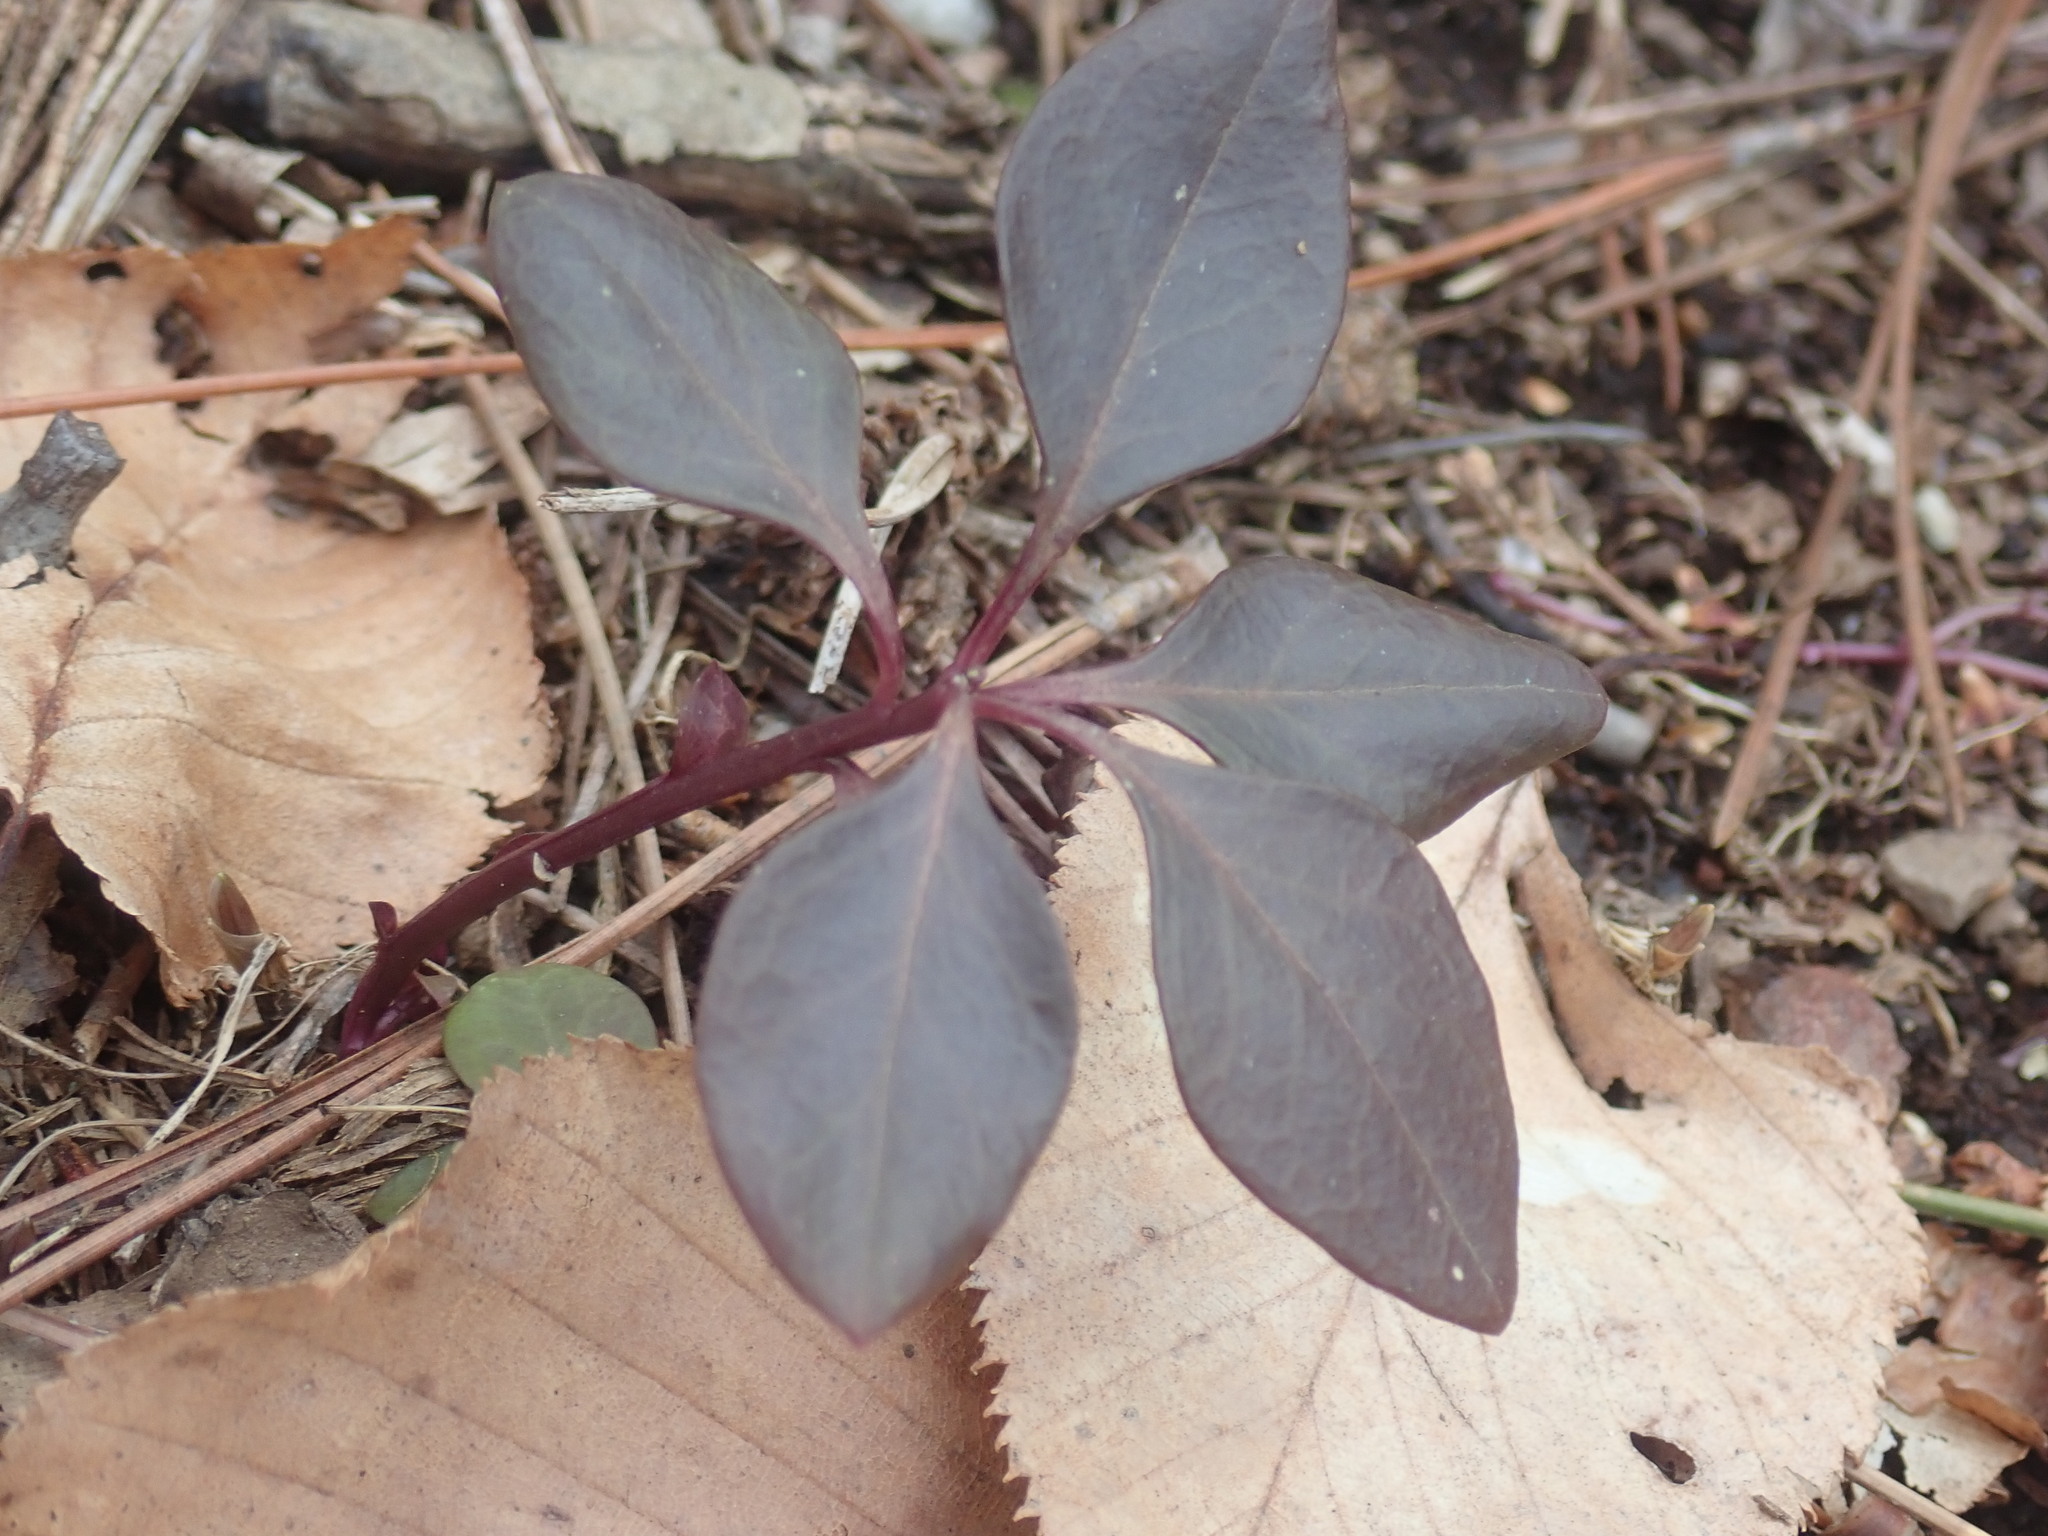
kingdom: Plantae
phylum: Tracheophyta
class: Magnoliopsida
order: Fabales
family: Polygalaceae
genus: Polygaloides
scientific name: Polygaloides paucifolia
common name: Bird-on-the-wing
